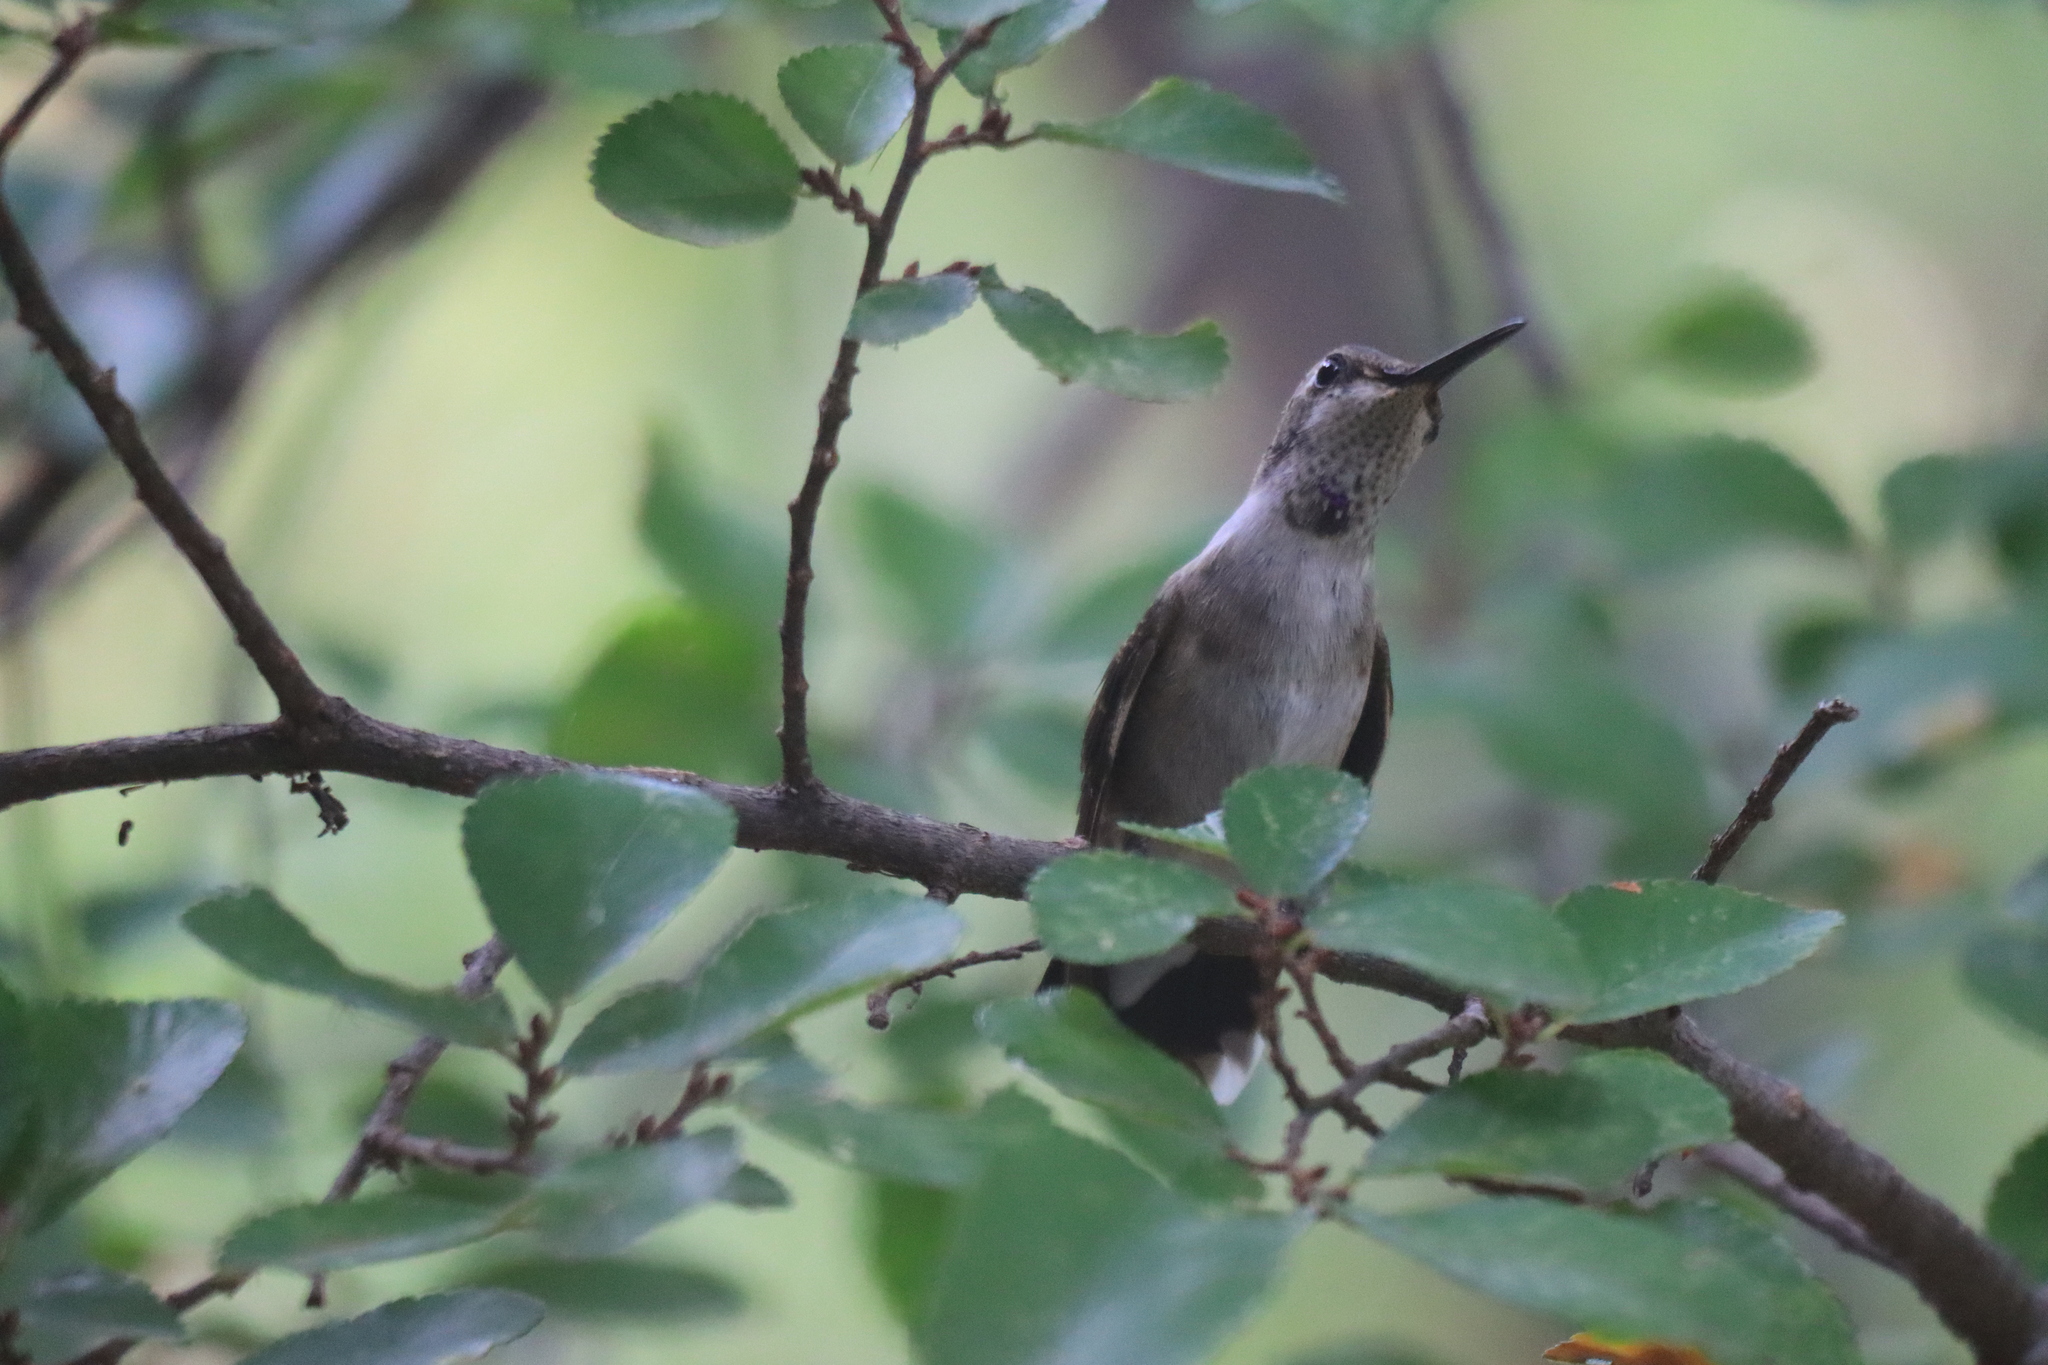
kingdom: Animalia
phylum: Chordata
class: Aves
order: Apodiformes
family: Trochilidae
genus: Archilochus
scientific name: Archilochus alexandri
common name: Black-chinned hummingbird
